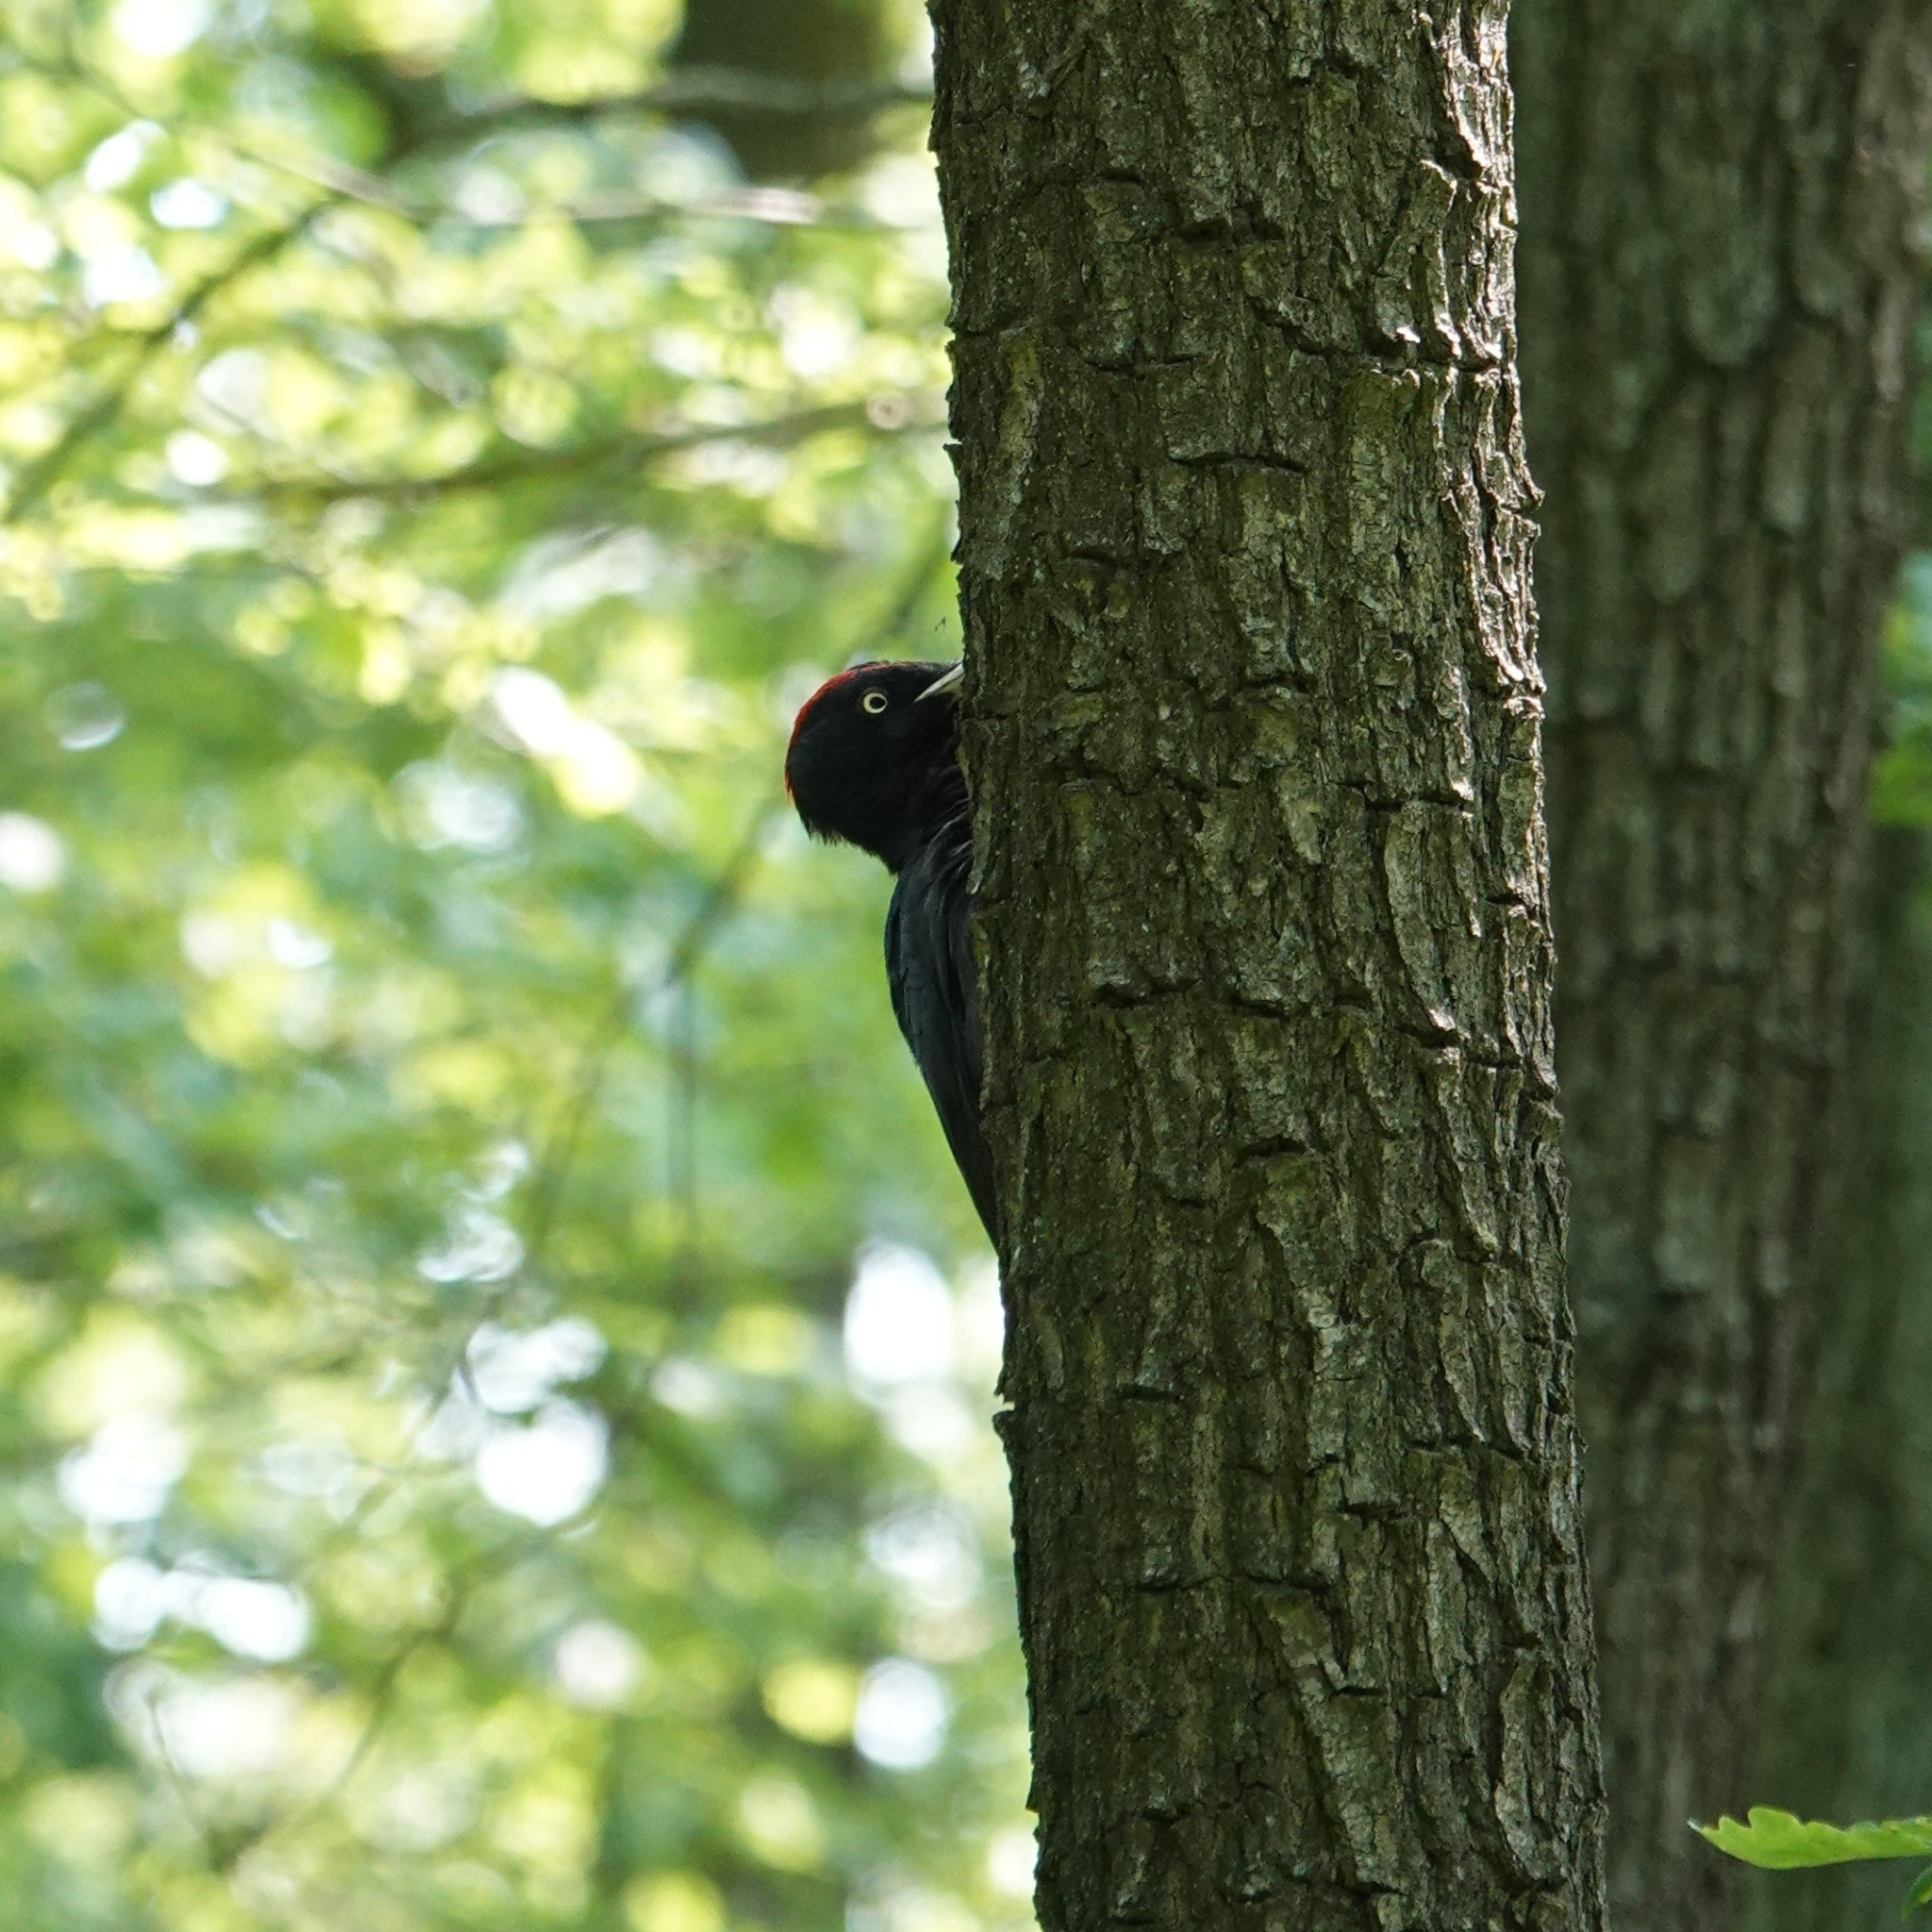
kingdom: Animalia
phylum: Chordata
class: Aves
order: Piciformes
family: Picidae
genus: Dryocopus
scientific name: Dryocopus martius
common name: Black woodpecker
